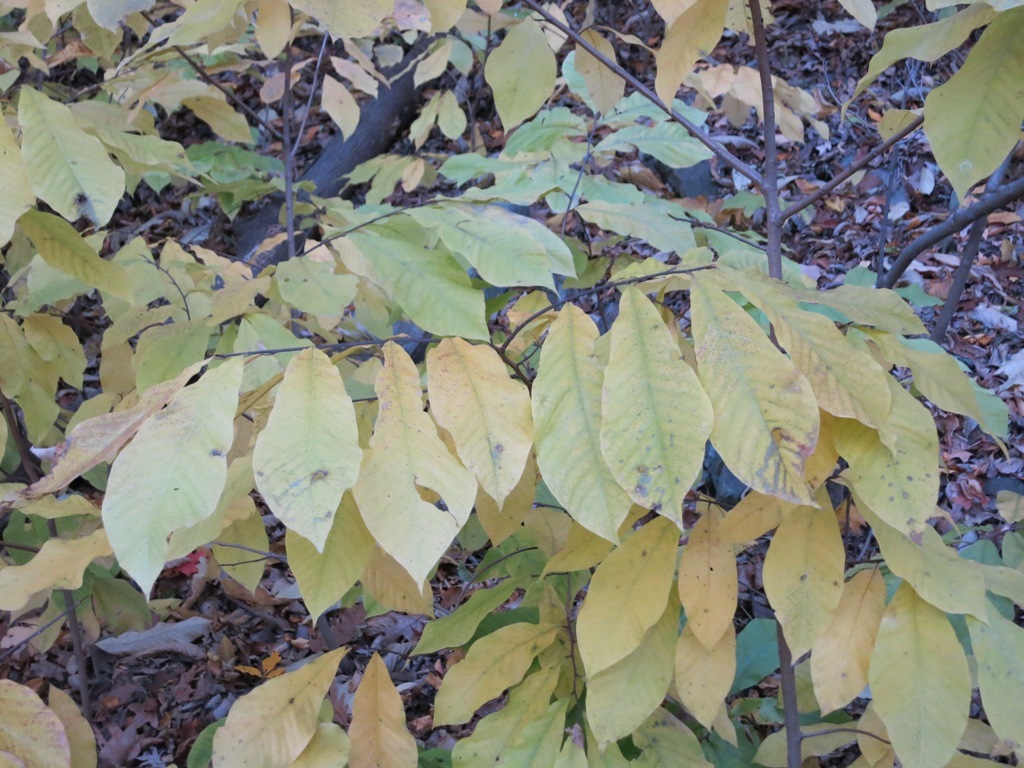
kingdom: Plantae
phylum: Tracheophyta
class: Magnoliopsida
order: Magnoliales
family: Annonaceae
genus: Asimina
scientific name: Asimina triloba
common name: Dog-banana
